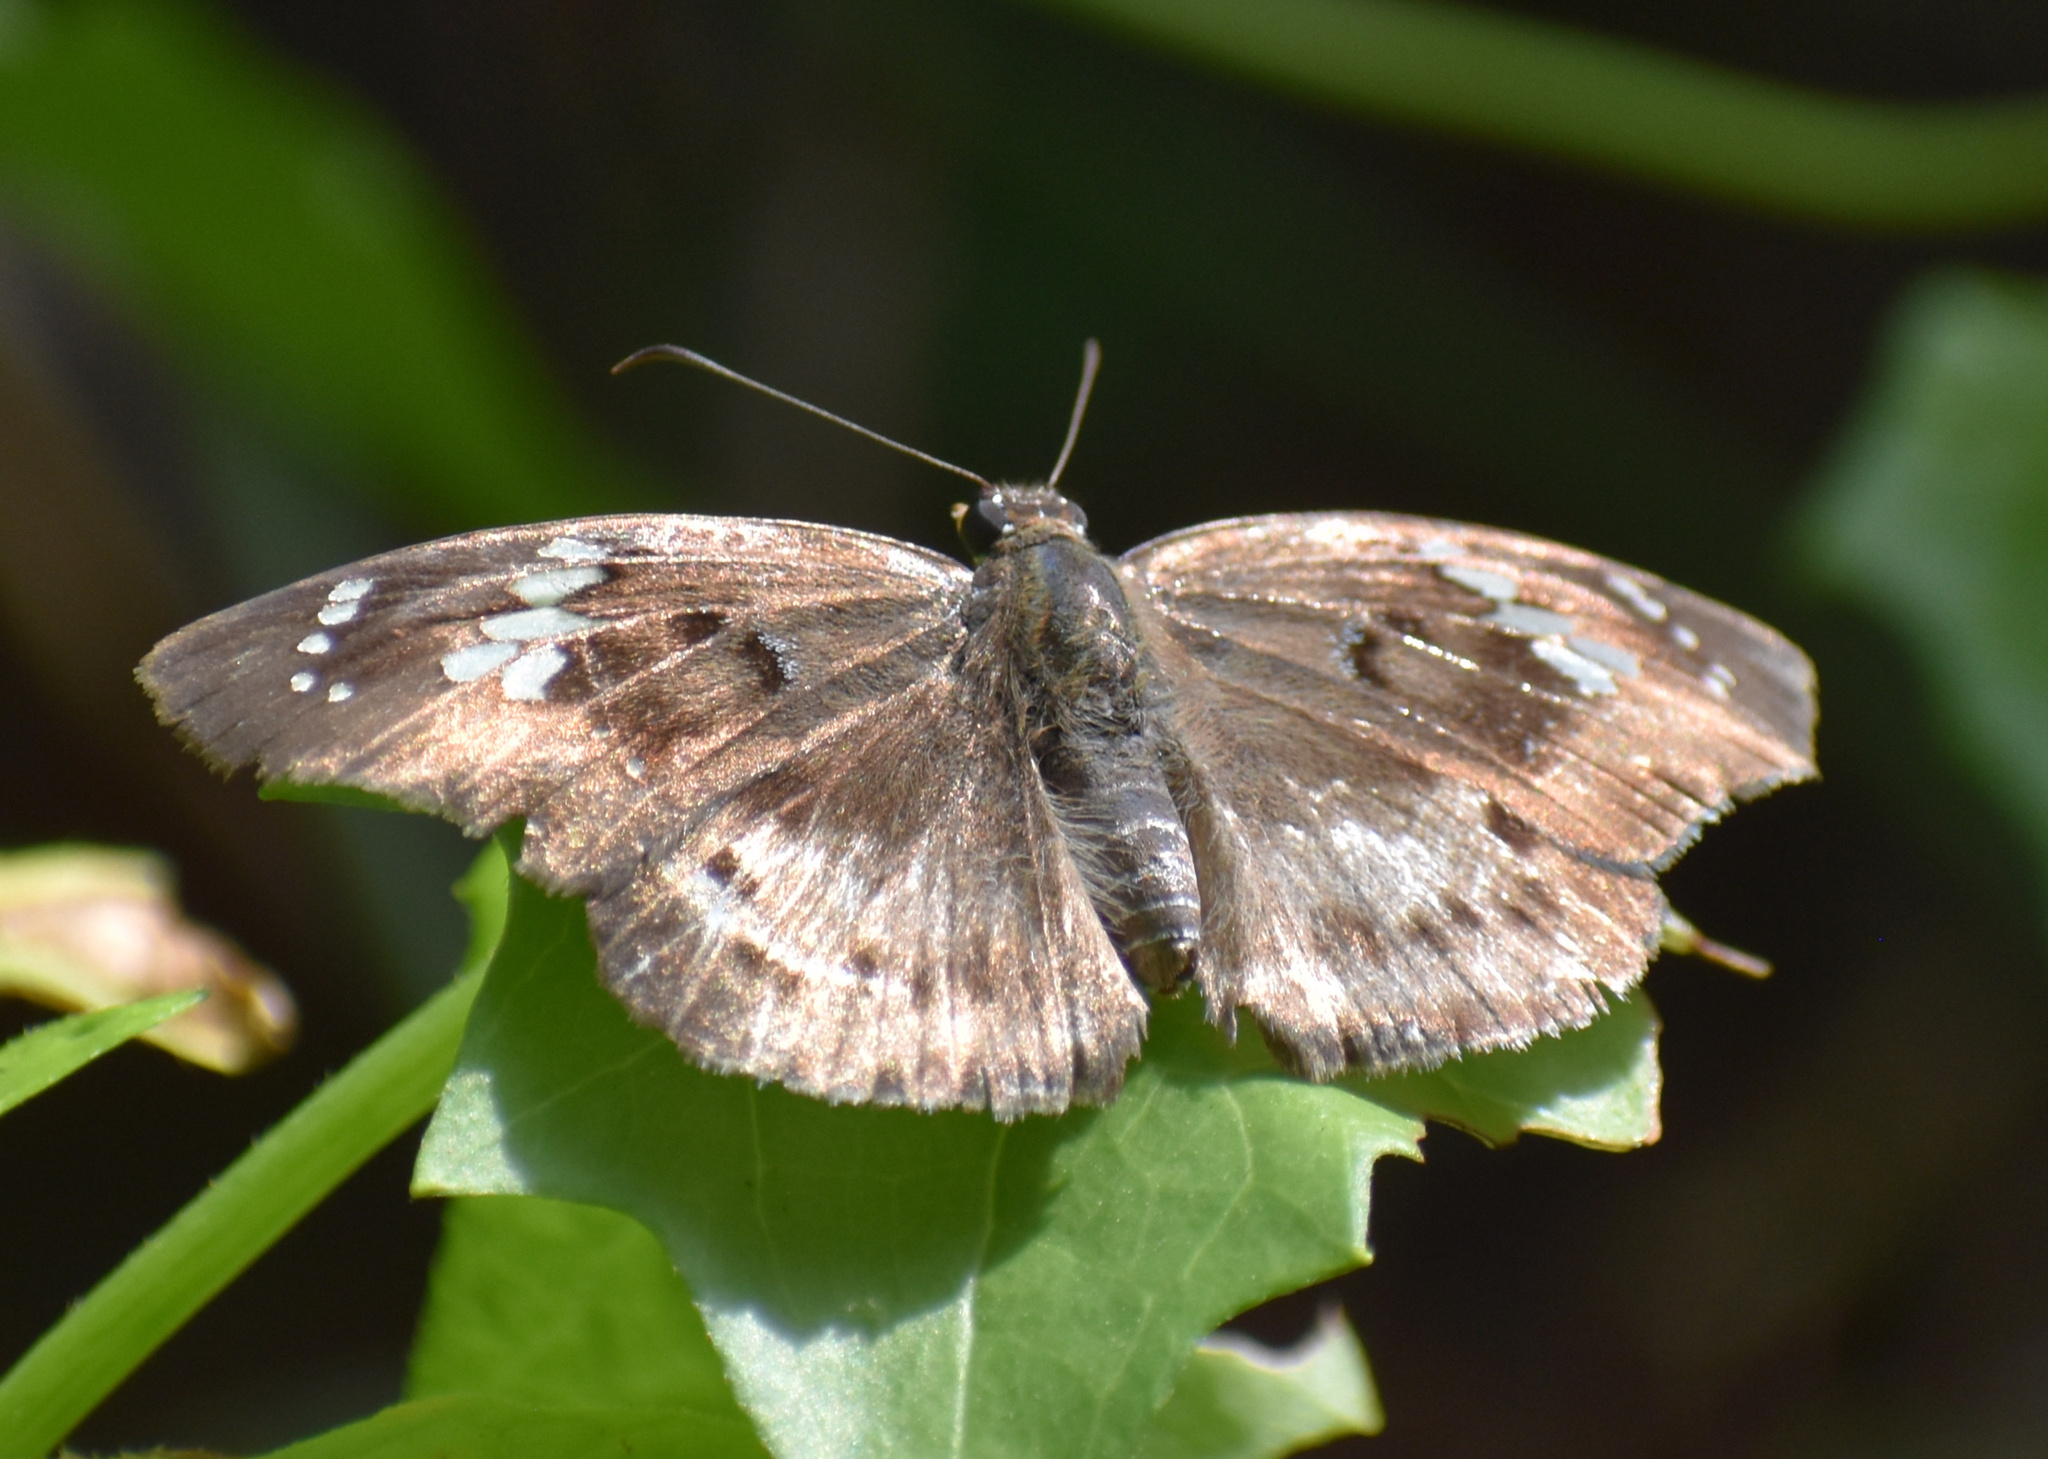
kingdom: Animalia
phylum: Arthropoda
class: Insecta
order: Lepidoptera
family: Hesperiidae
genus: Tagiades
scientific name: Tagiades flesus
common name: Clouded flat
